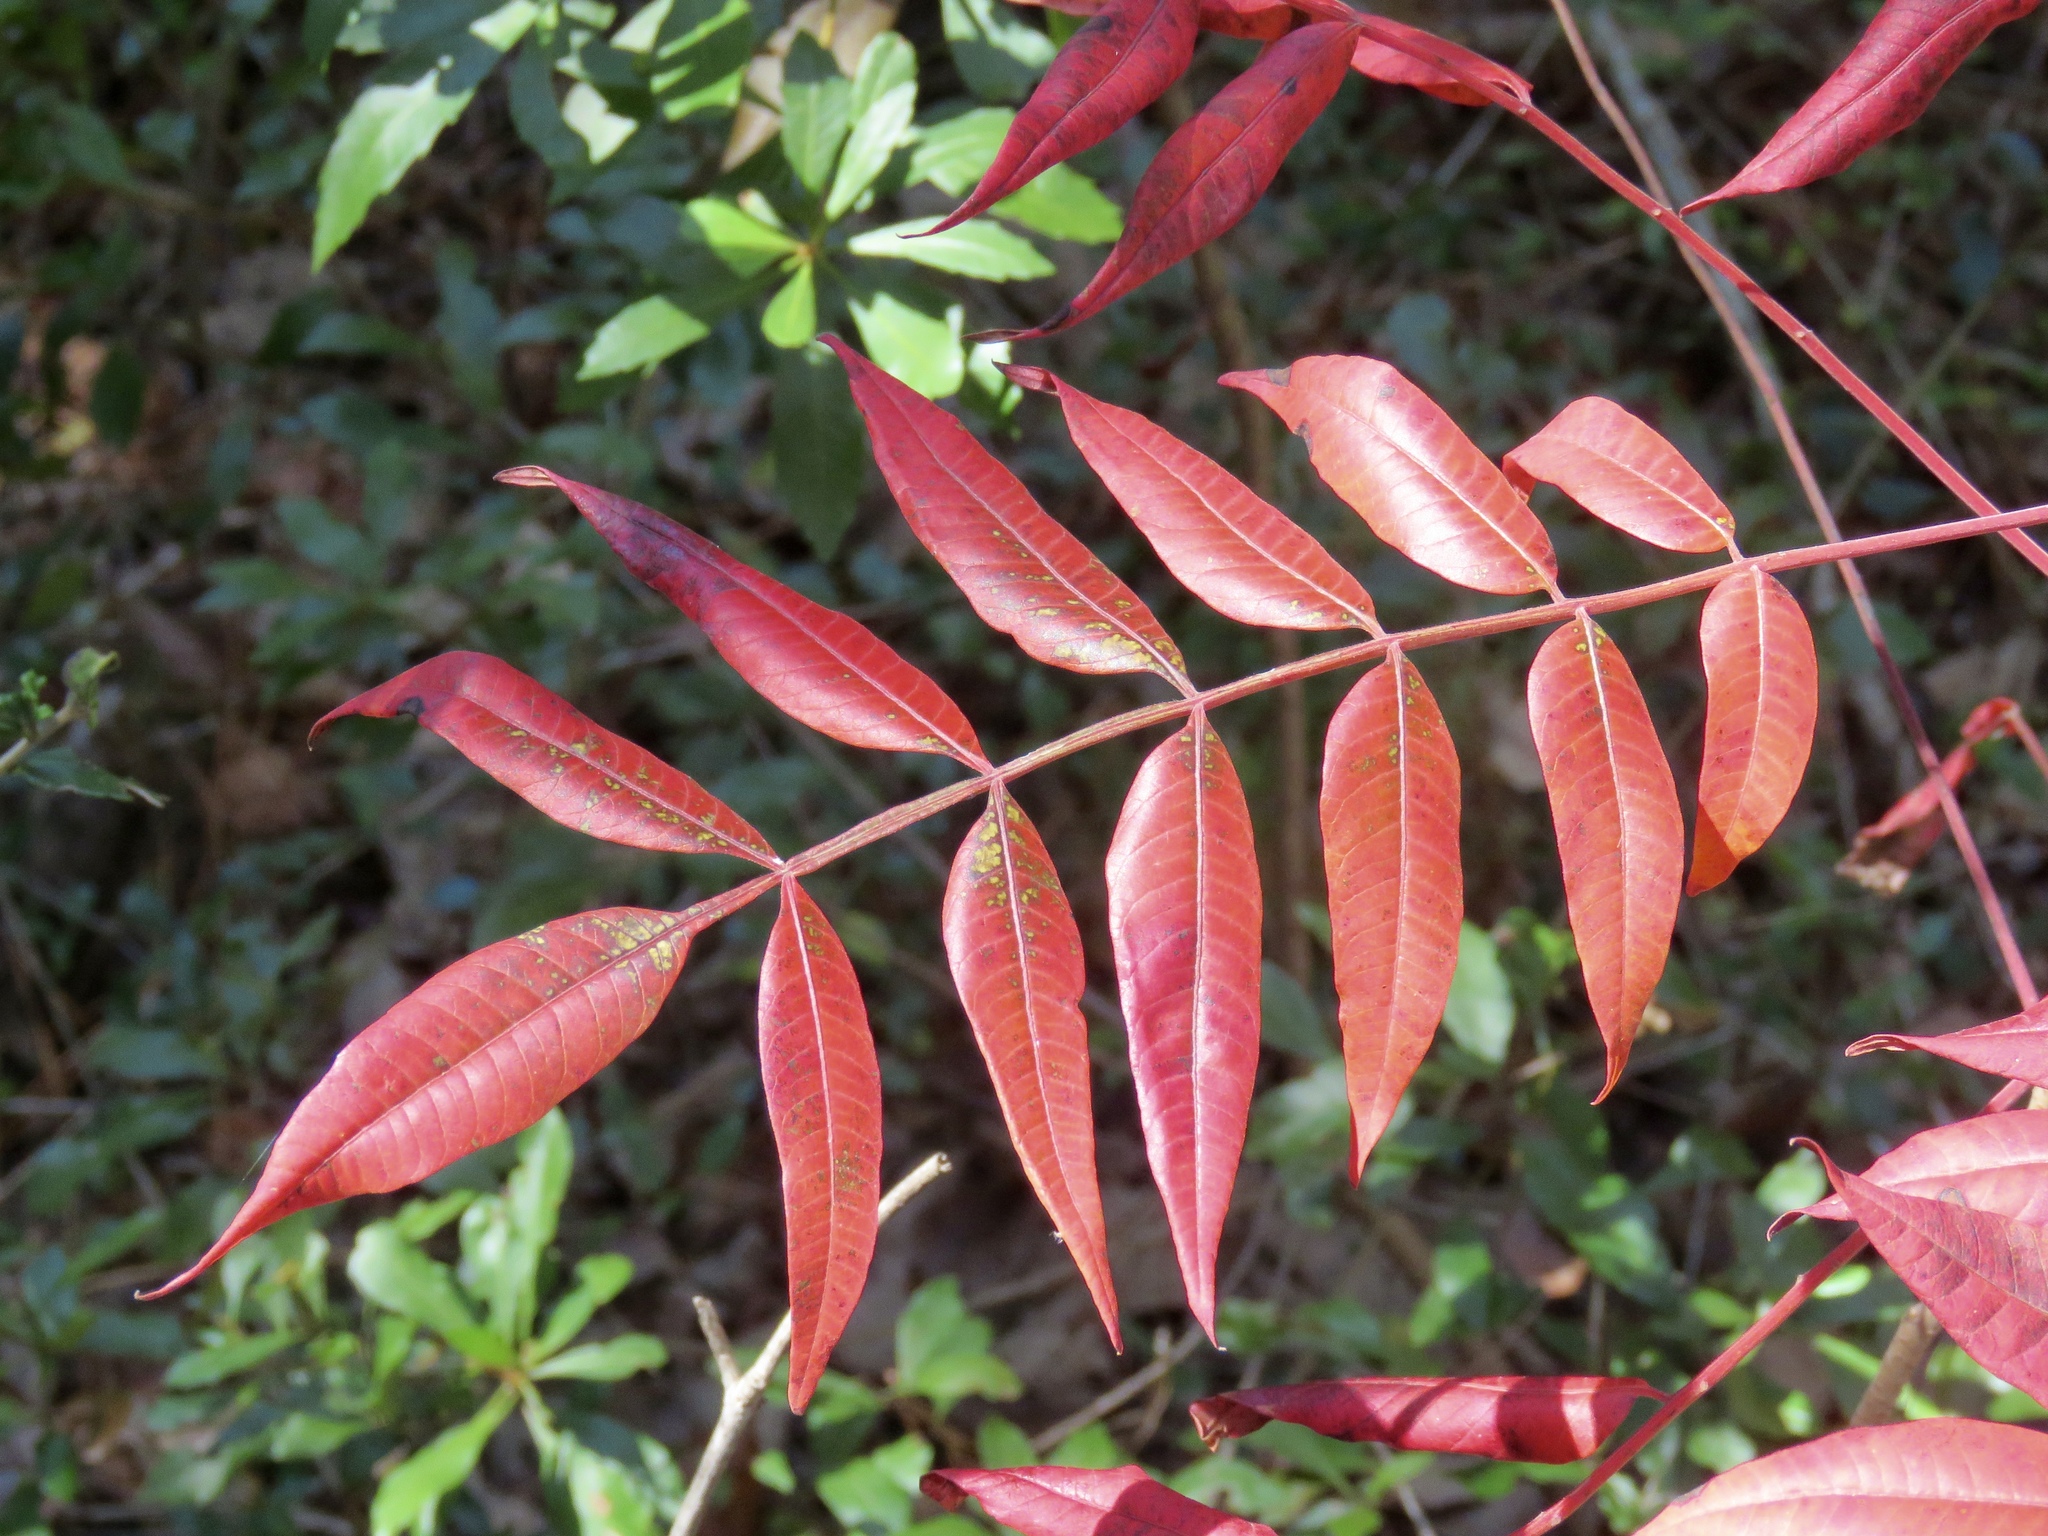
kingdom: Plantae
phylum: Tracheophyta
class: Magnoliopsida
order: Sapindales
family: Anacardiaceae
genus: Rhus
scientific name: Rhus copallina
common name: Shining sumac
